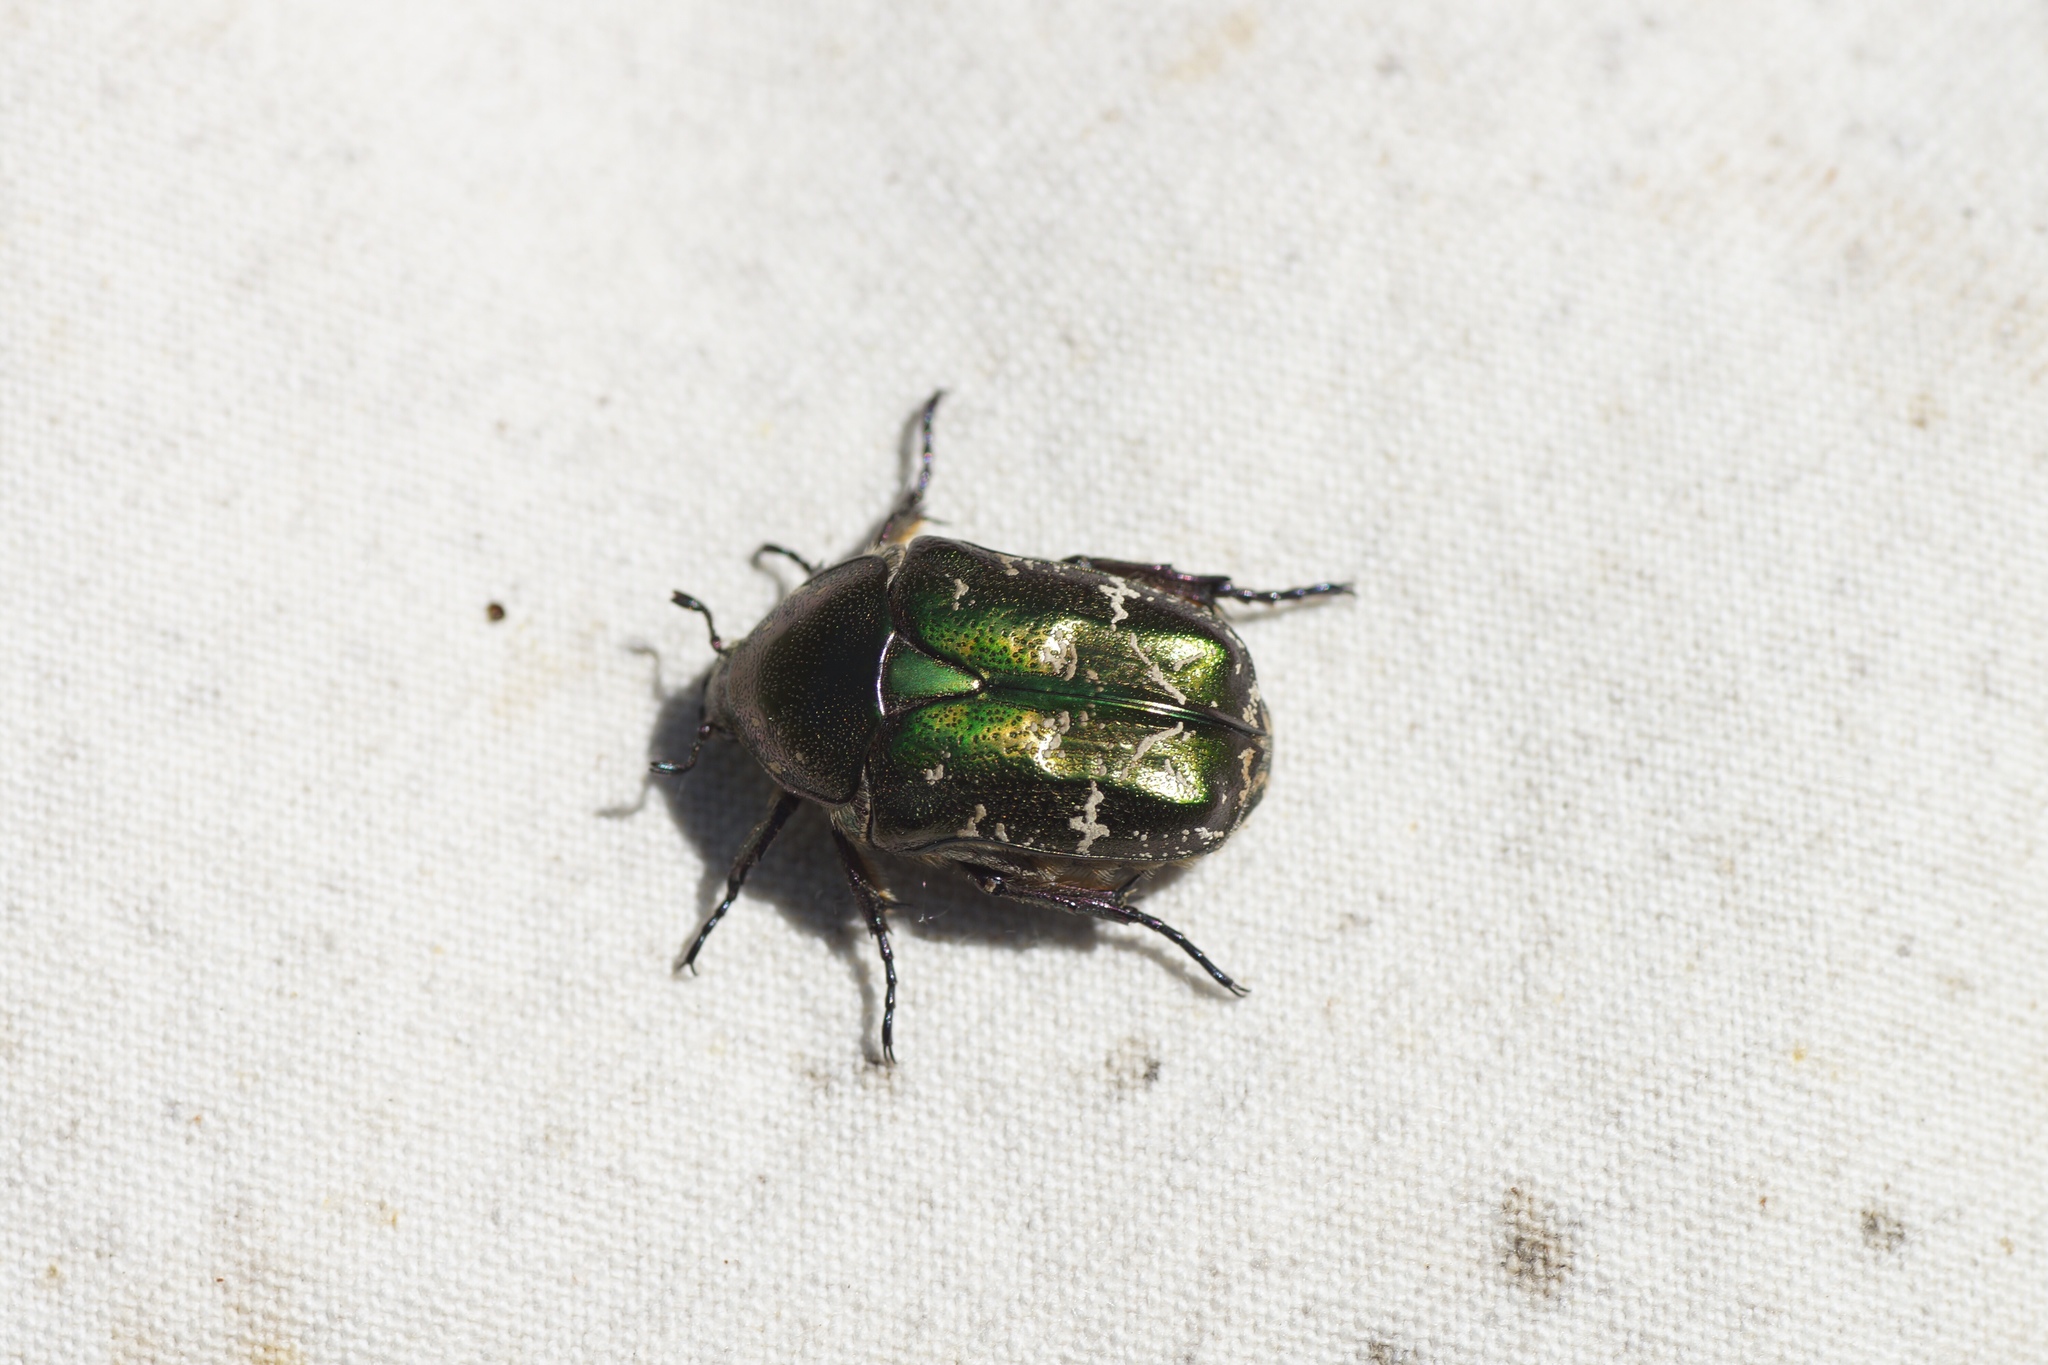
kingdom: Animalia
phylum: Arthropoda
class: Insecta
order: Coleoptera
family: Scarabaeidae
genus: Protaetia
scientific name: Protaetia cuprea
